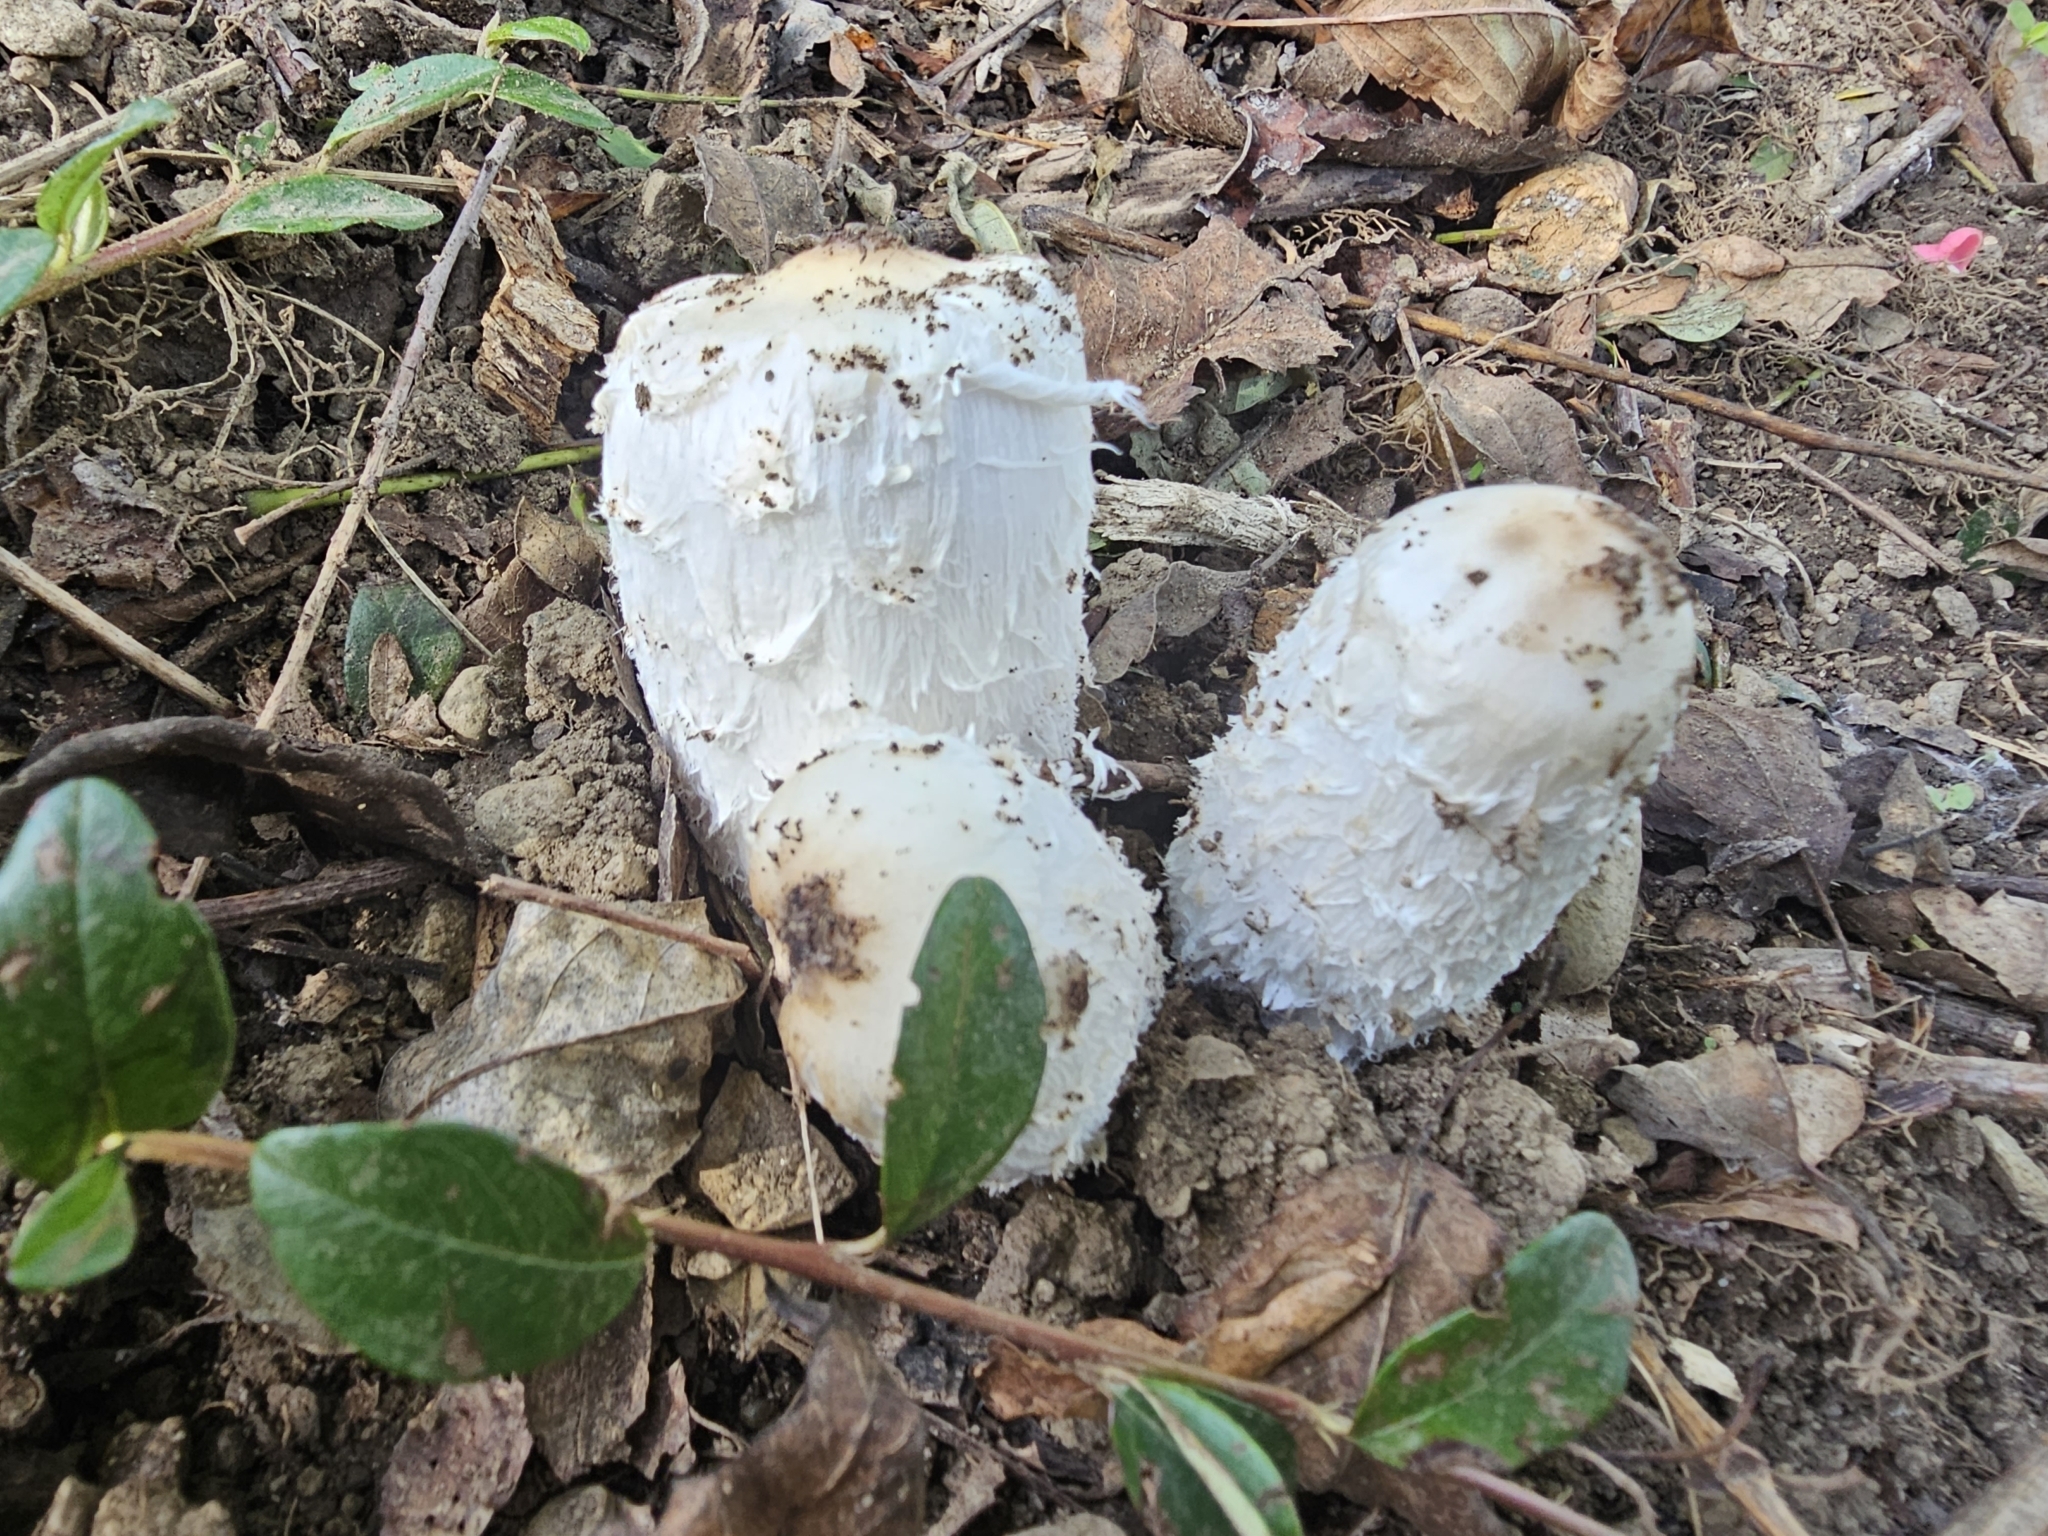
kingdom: Fungi
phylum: Basidiomycota
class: Agaricomycetes
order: Agaricales
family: Agaricaceae
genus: Coprinus
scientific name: Coprinus comatus
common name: Lawyer's wig
